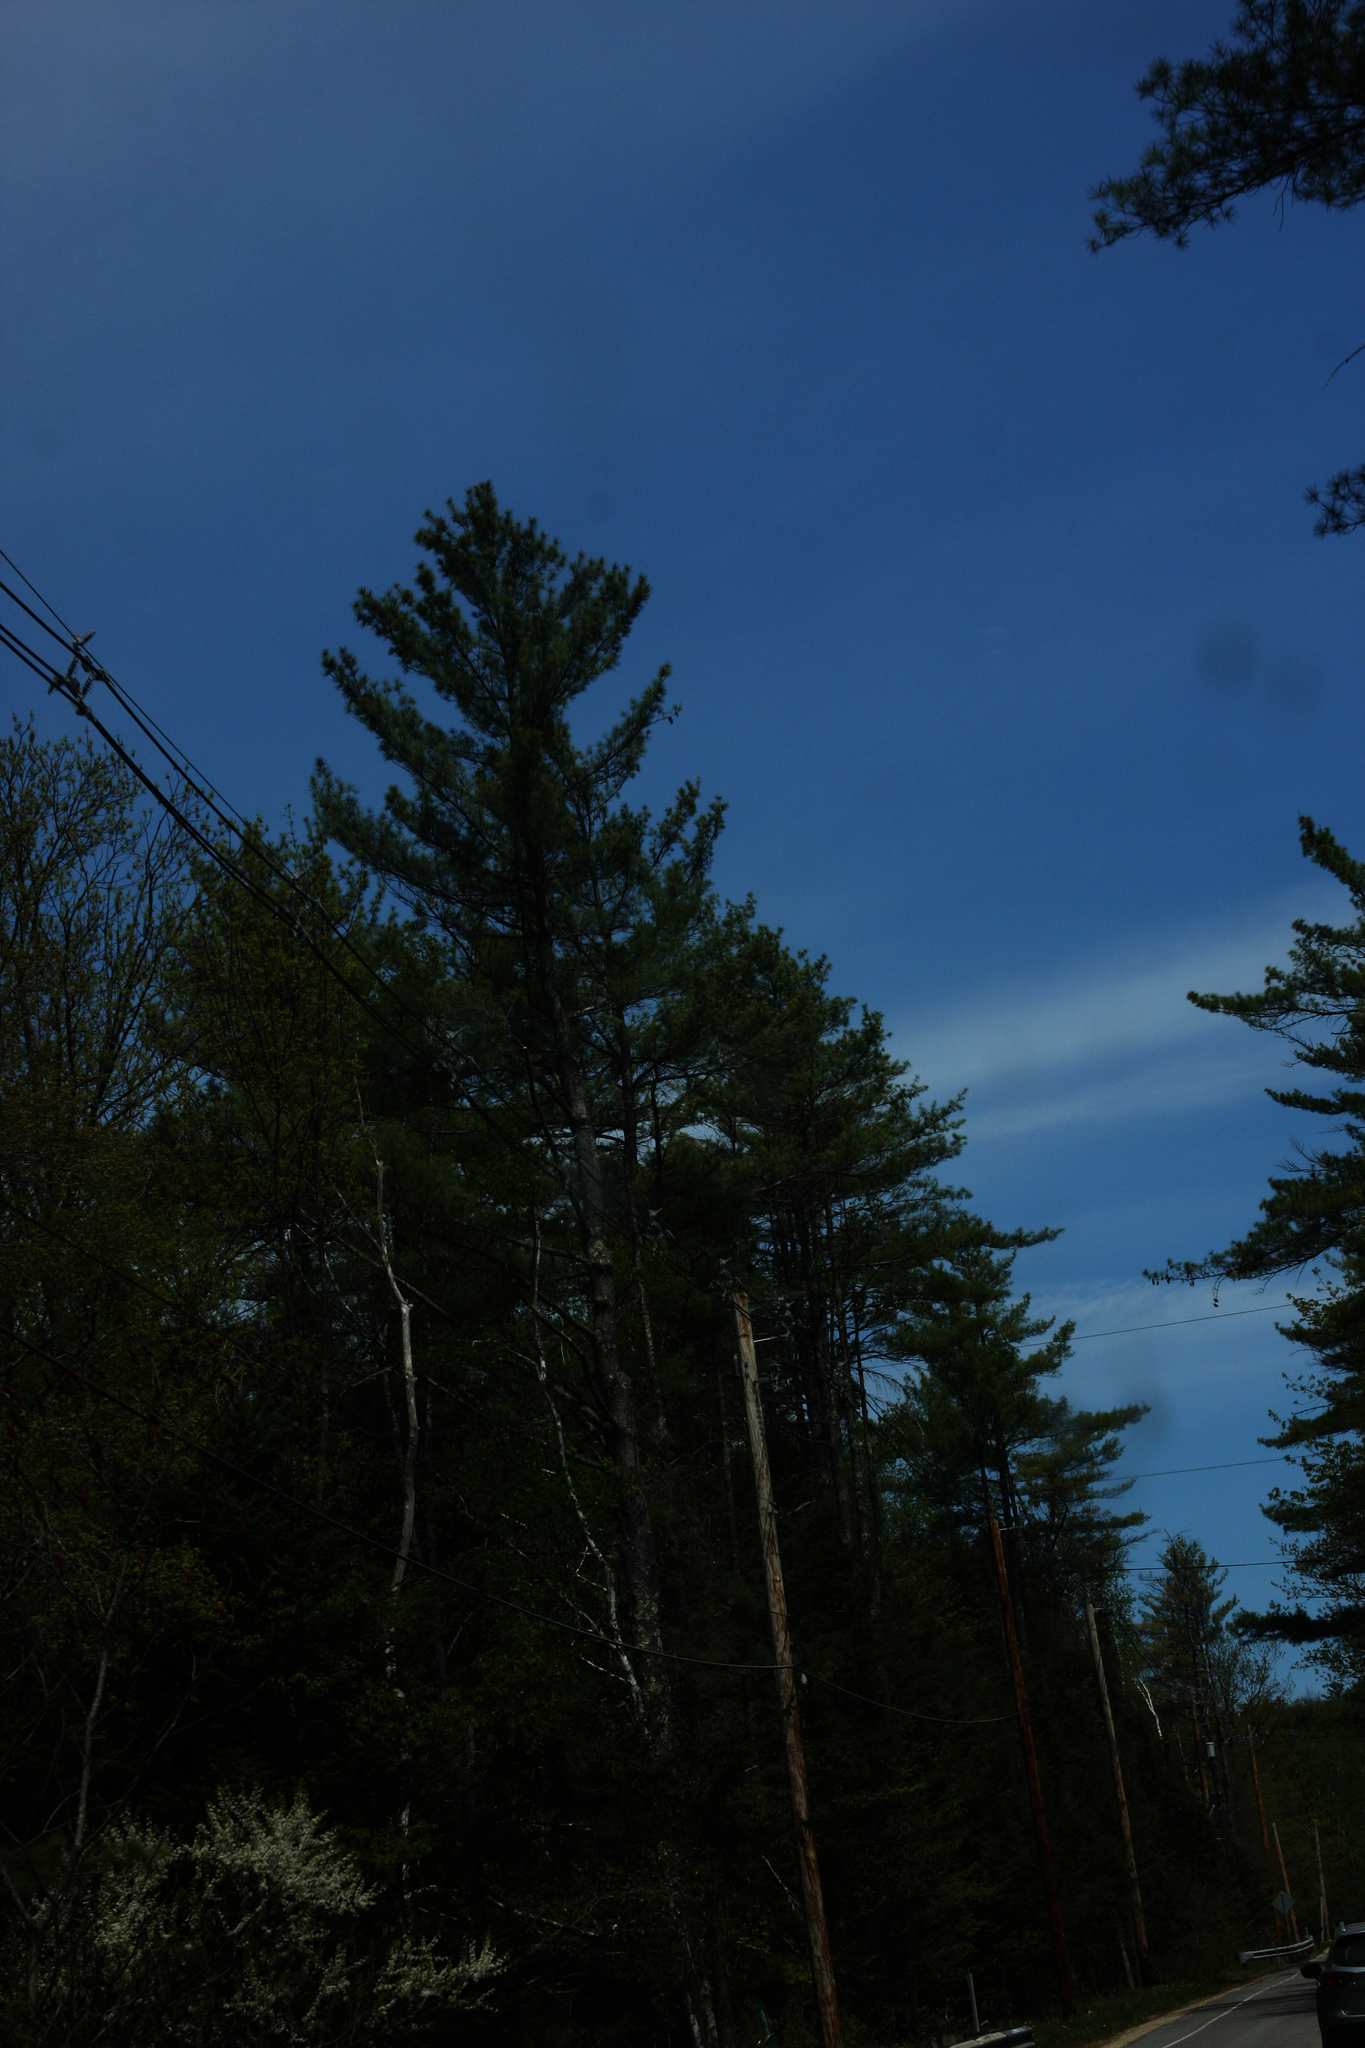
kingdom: Plantae
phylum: Tracheophyta
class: Pinopsida
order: Pinales
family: Pinaceae
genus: Pinus
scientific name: Pinus strobus
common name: Weymouth pine
